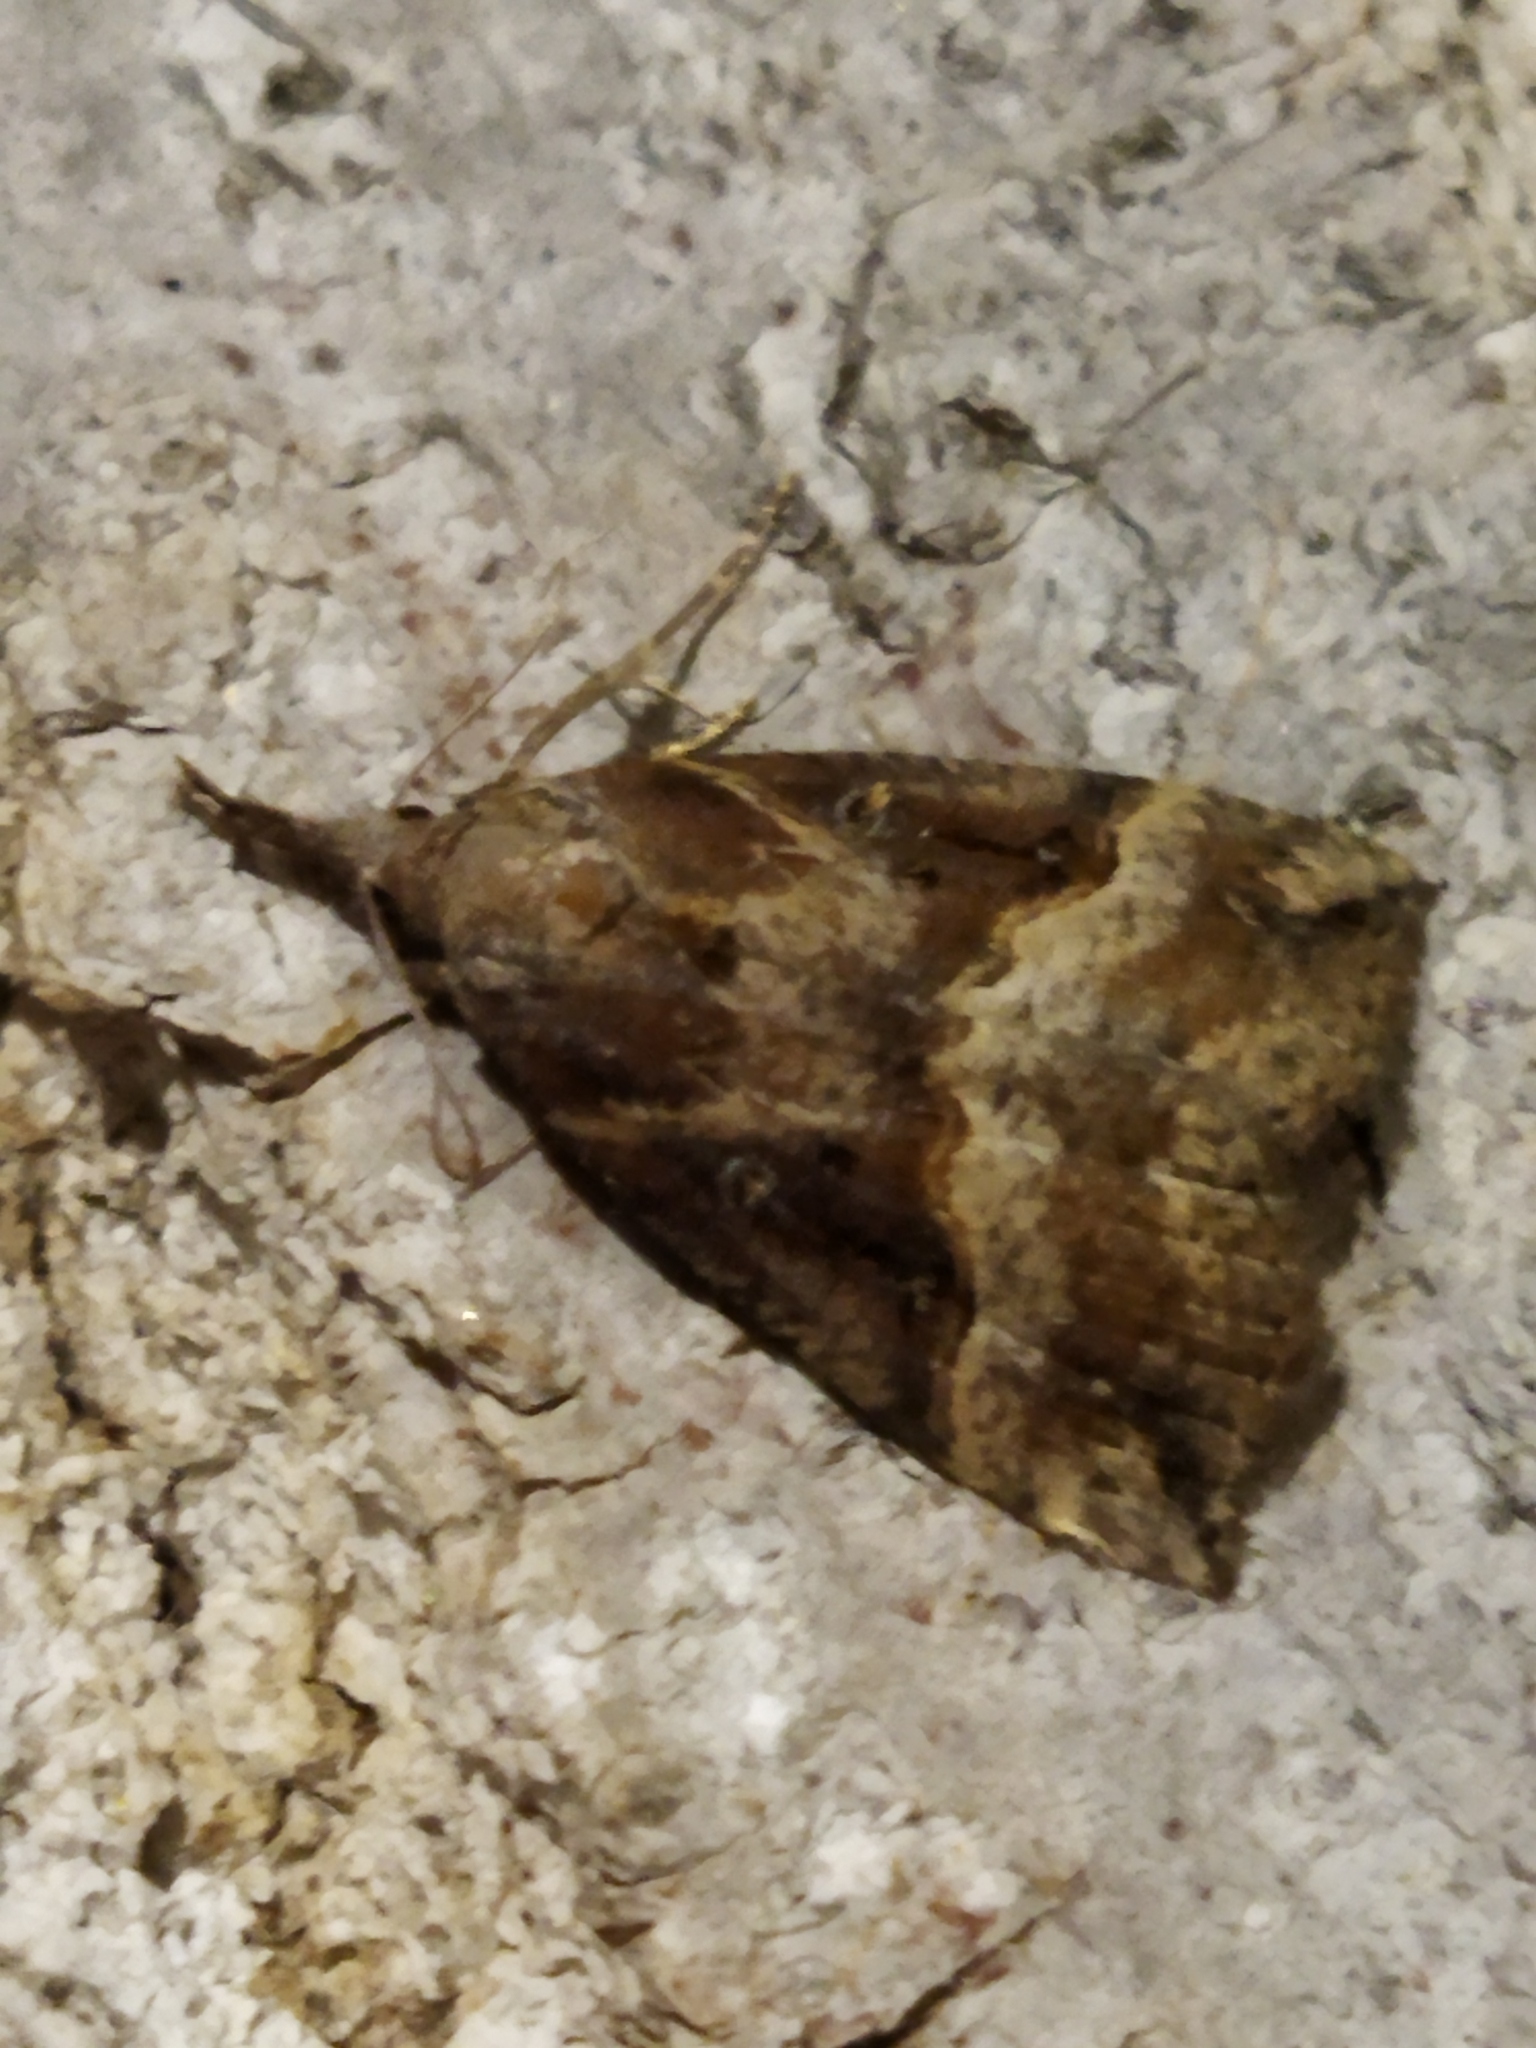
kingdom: Animalia
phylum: Arthropoda
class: Insecta
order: Lepidoptera
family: Erebidae
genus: Hypena
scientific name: Hypena rostralis
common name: Buttoned snout
